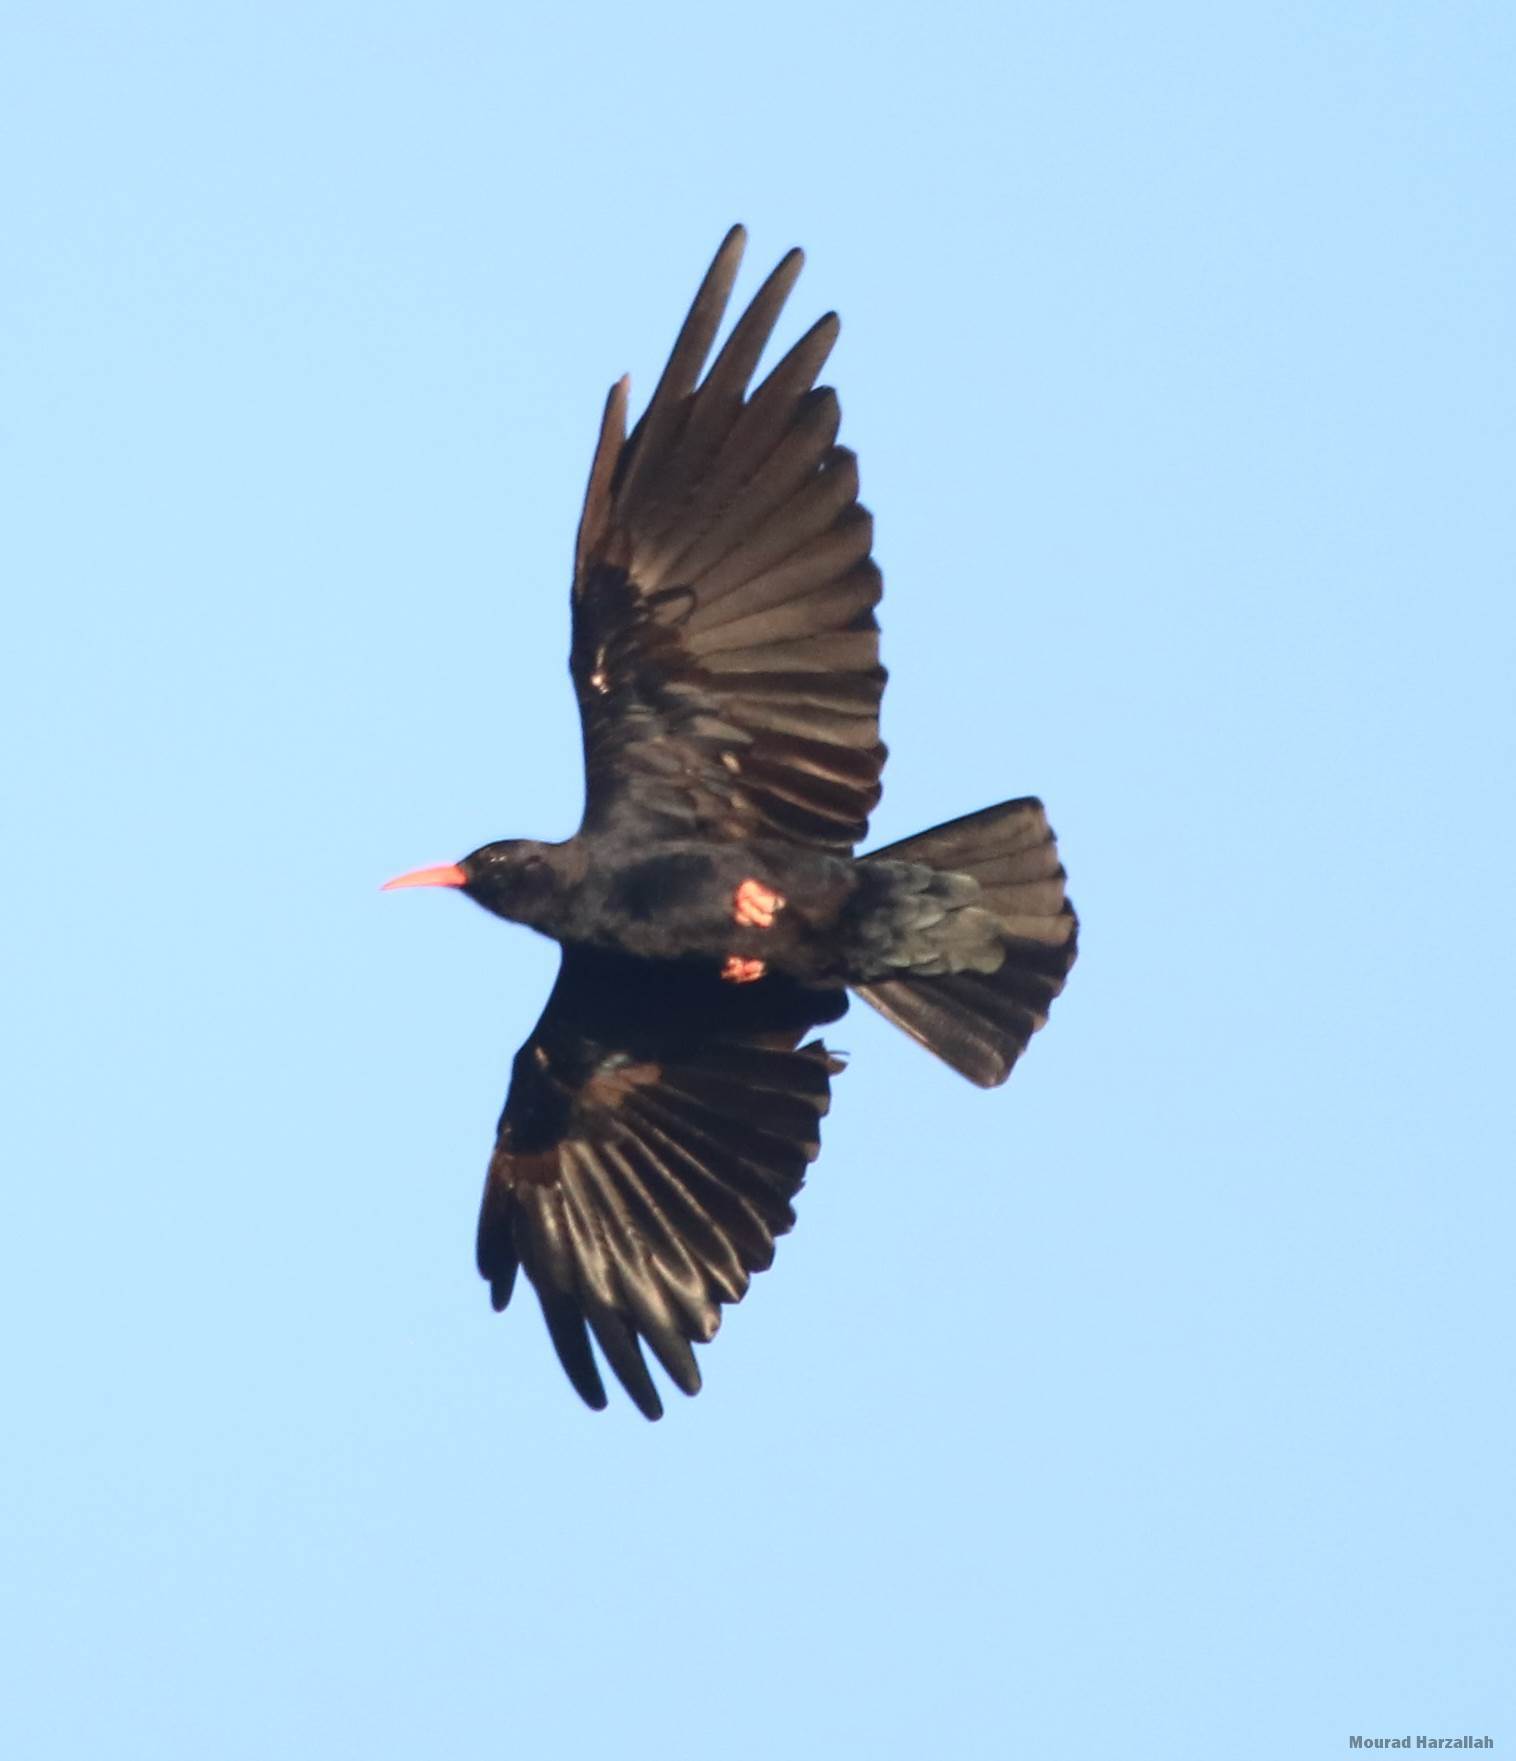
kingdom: Animalia
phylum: Chordata
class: Aves
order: Passeriformes
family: Corvidae
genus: Pyrrhocorax
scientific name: Pyrrhocorax pyrrhocorax
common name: Red-billed chough
